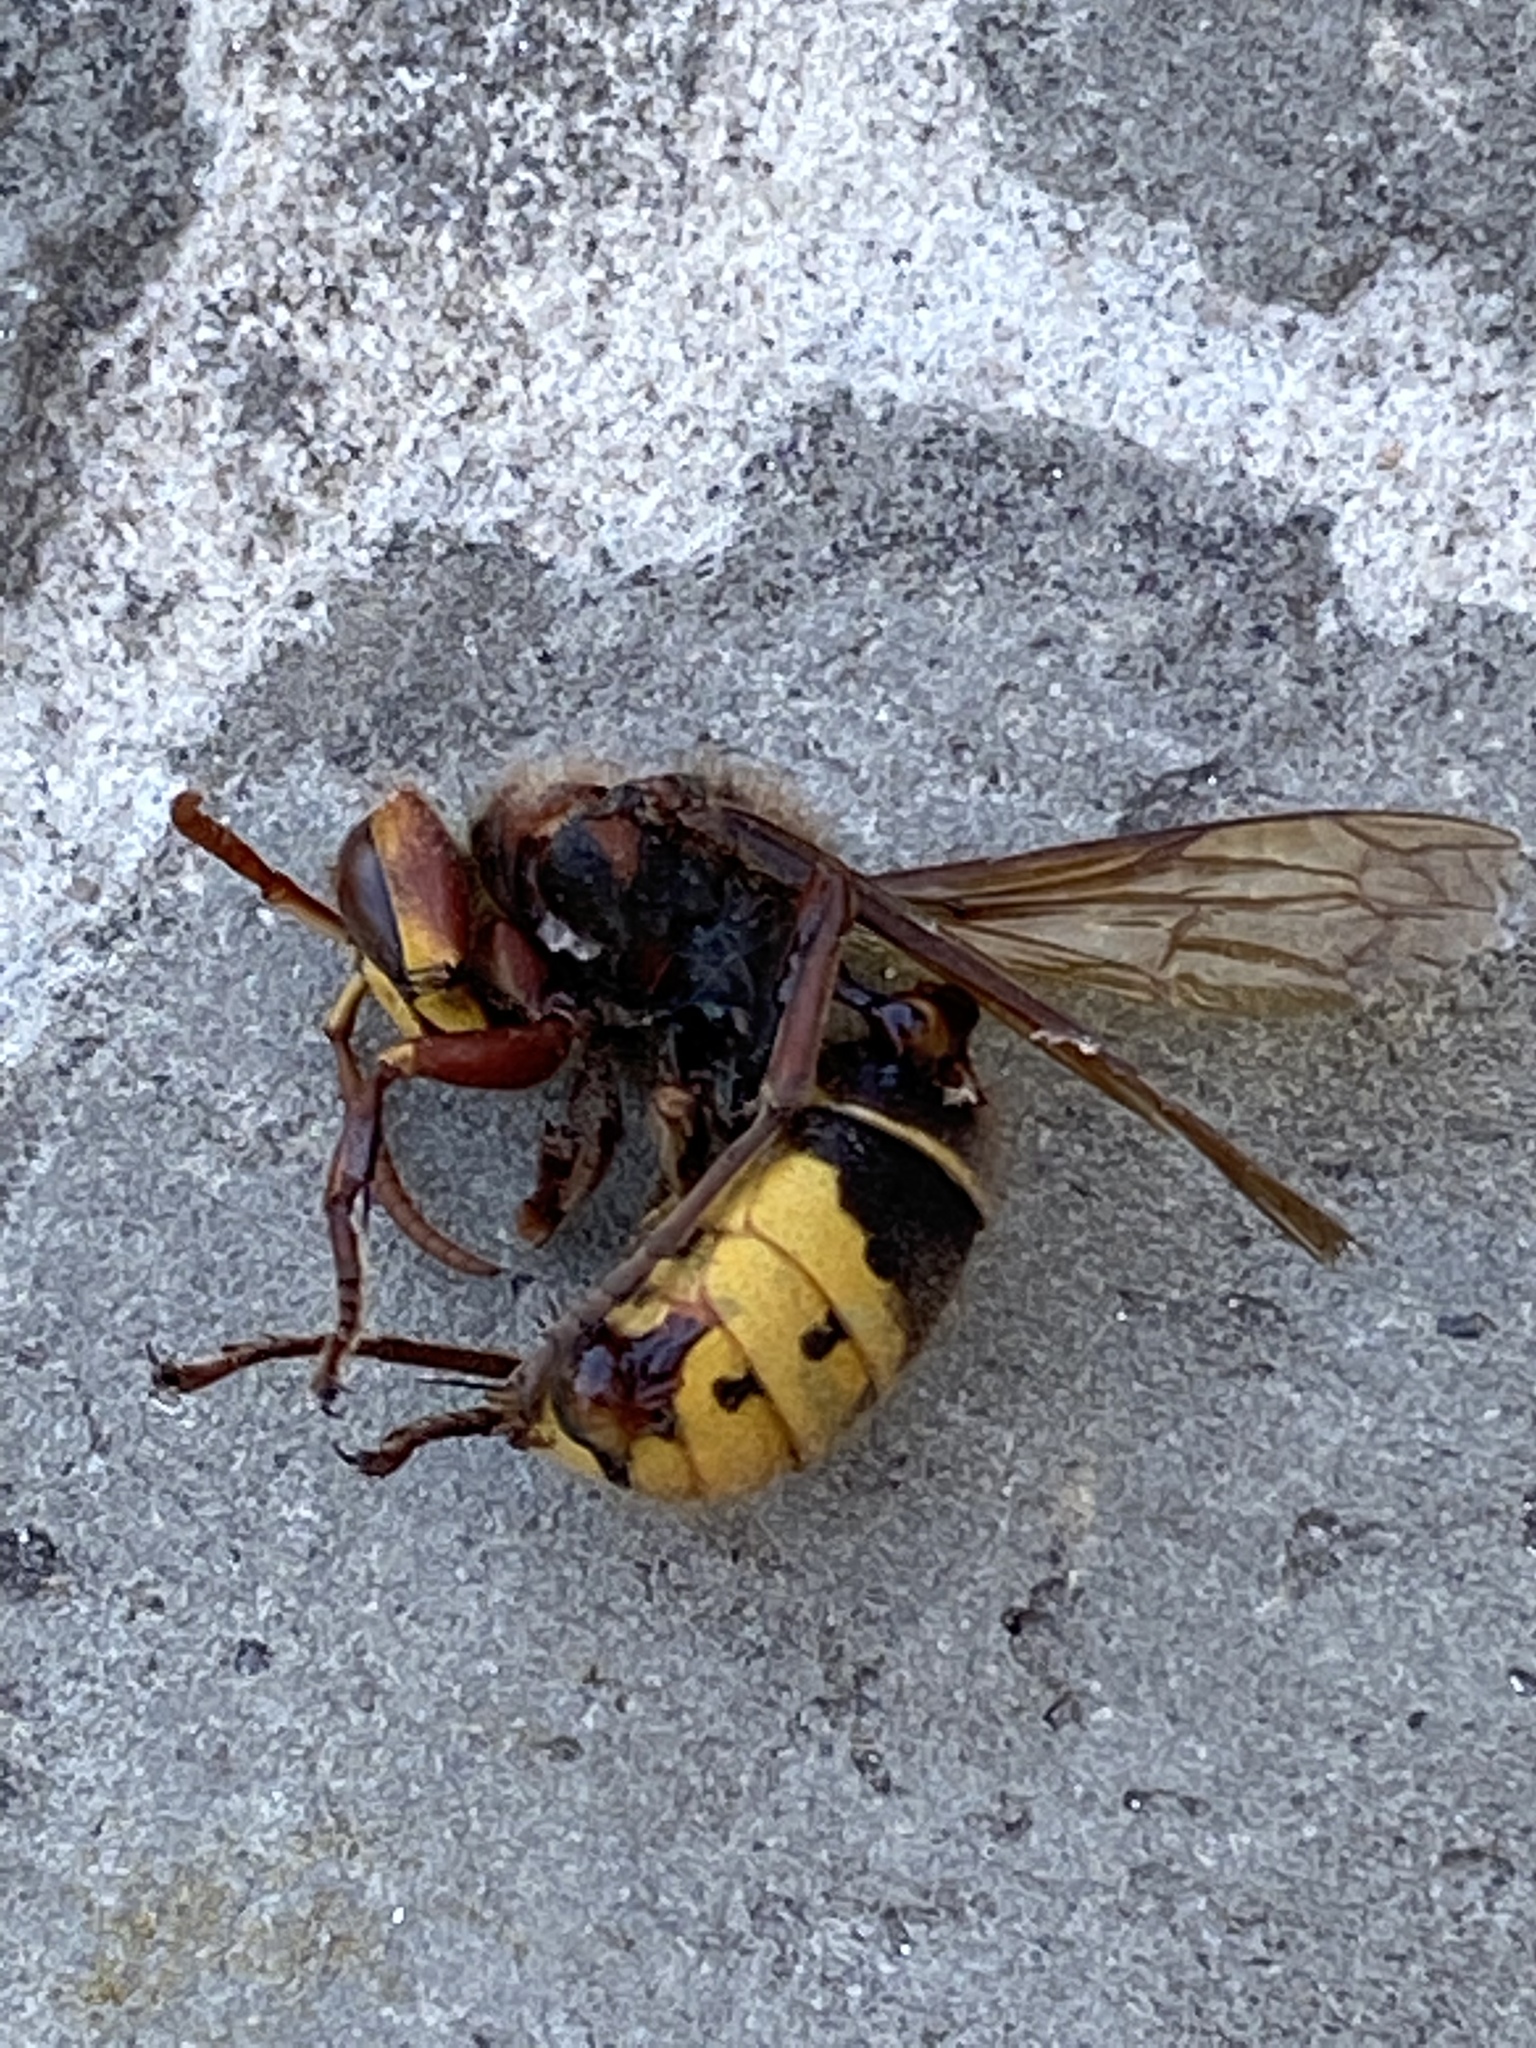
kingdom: Animalia
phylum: Arthropoda
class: Insecta
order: Hymenoptera
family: Vespidae
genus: Vespa
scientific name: Vespa crabro
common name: Hornet
